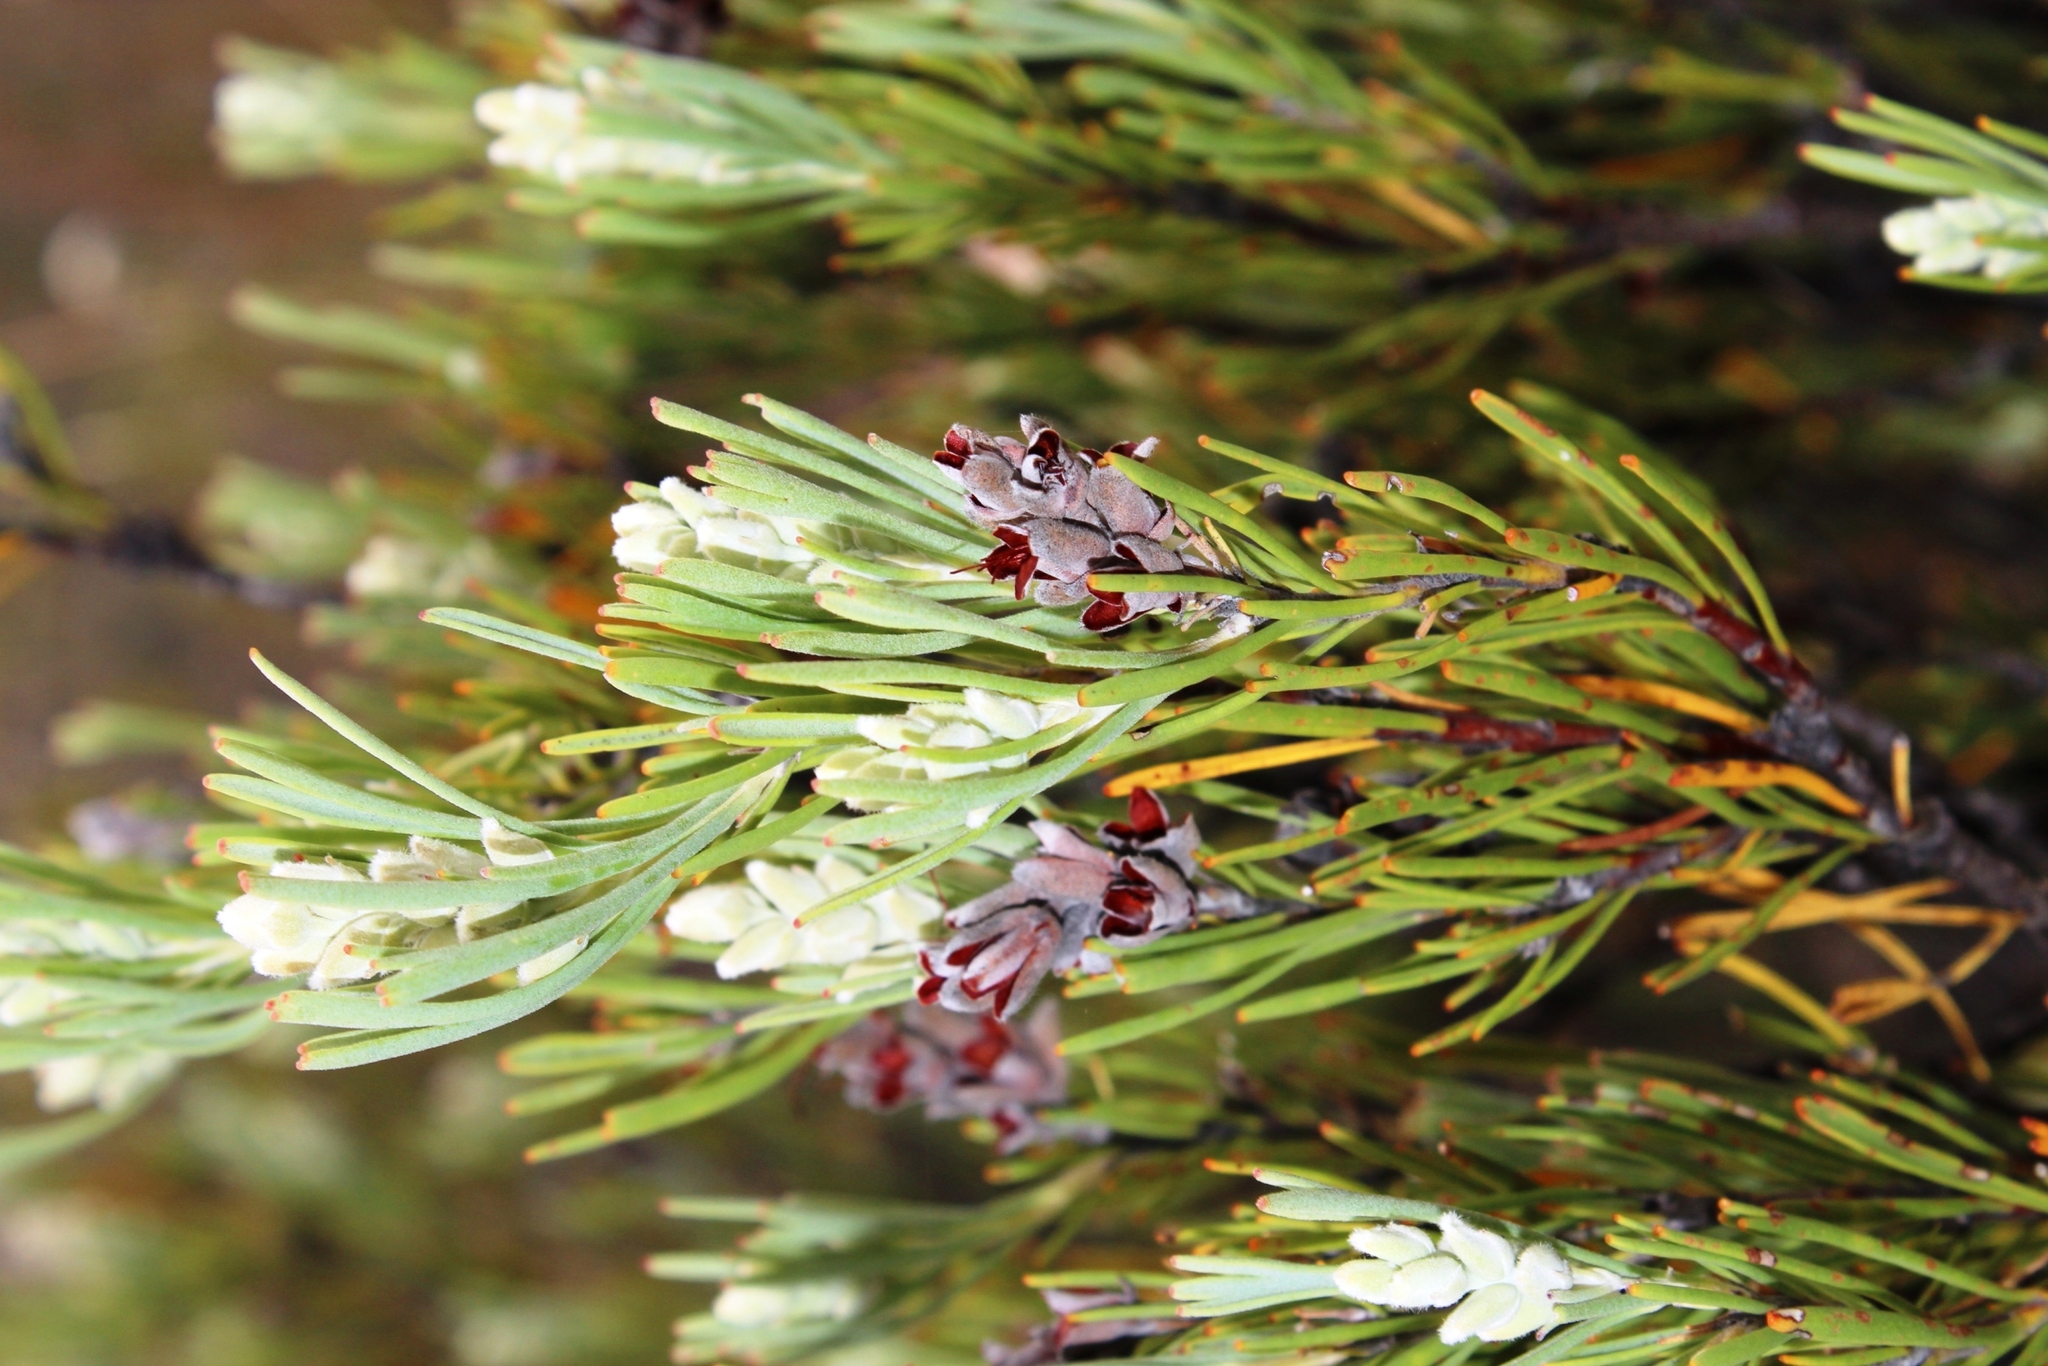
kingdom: Plantae
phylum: Tracheophyta
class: Magnoliopsida
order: Proteales
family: Proteaceae
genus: Paranomus
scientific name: Paranomus dregei
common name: Scented sceptre
